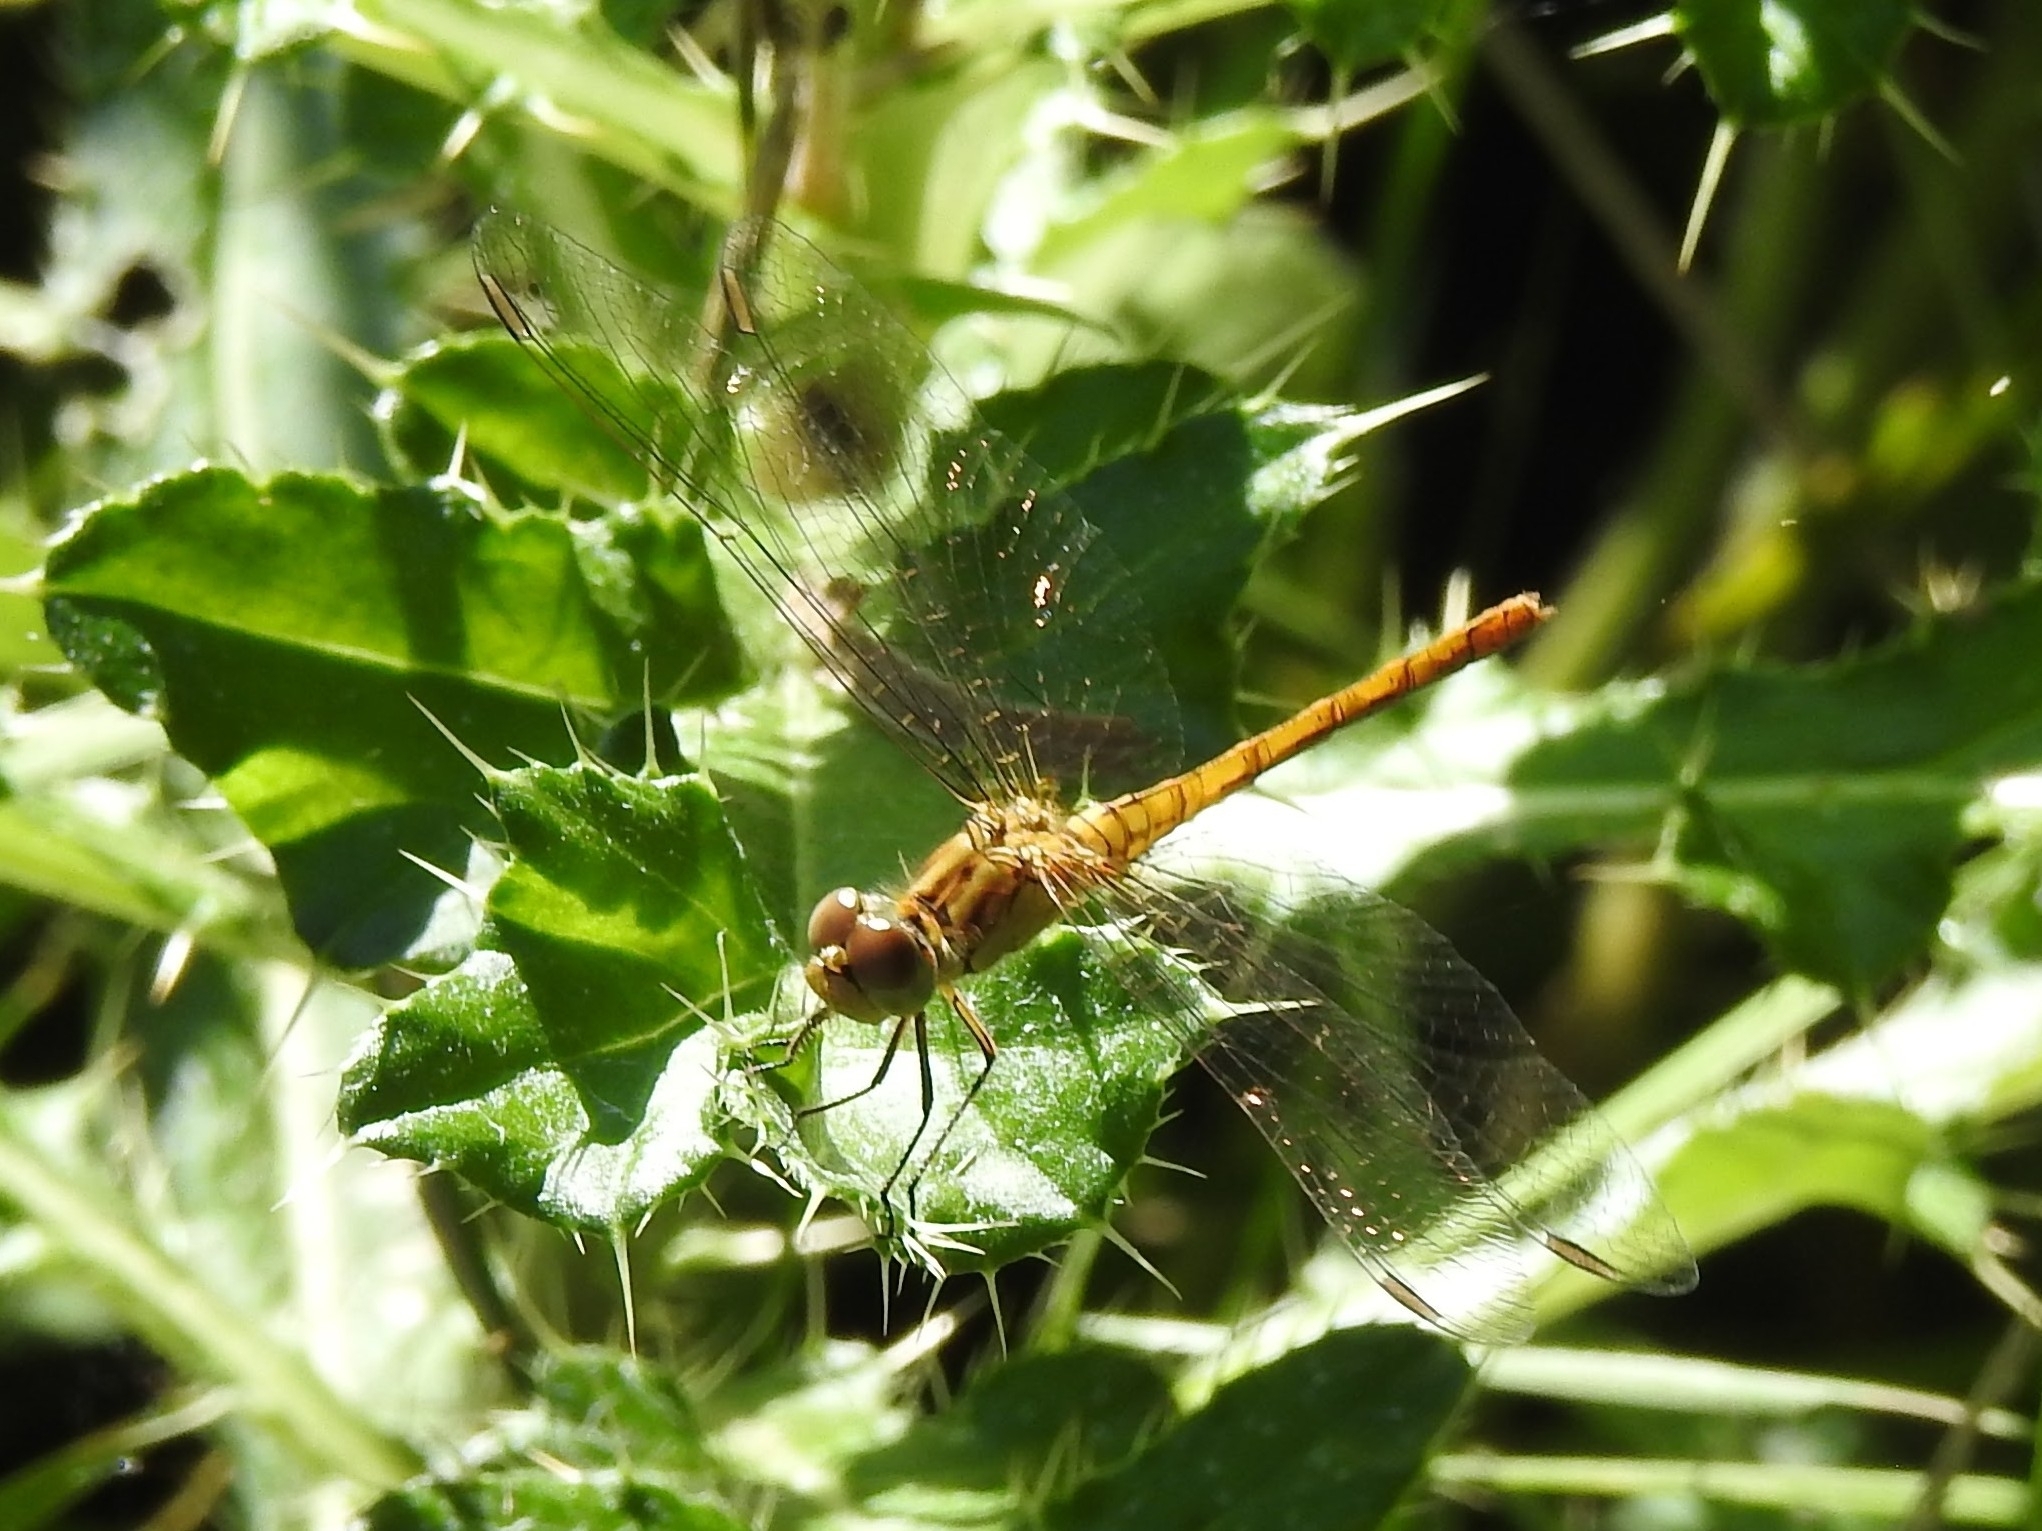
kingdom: Animalia
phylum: Arthropoda
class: Insecta
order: Odonata
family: Libellulidae
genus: Sympetrum
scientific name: Sympetrum meridionale
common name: Southern darter
